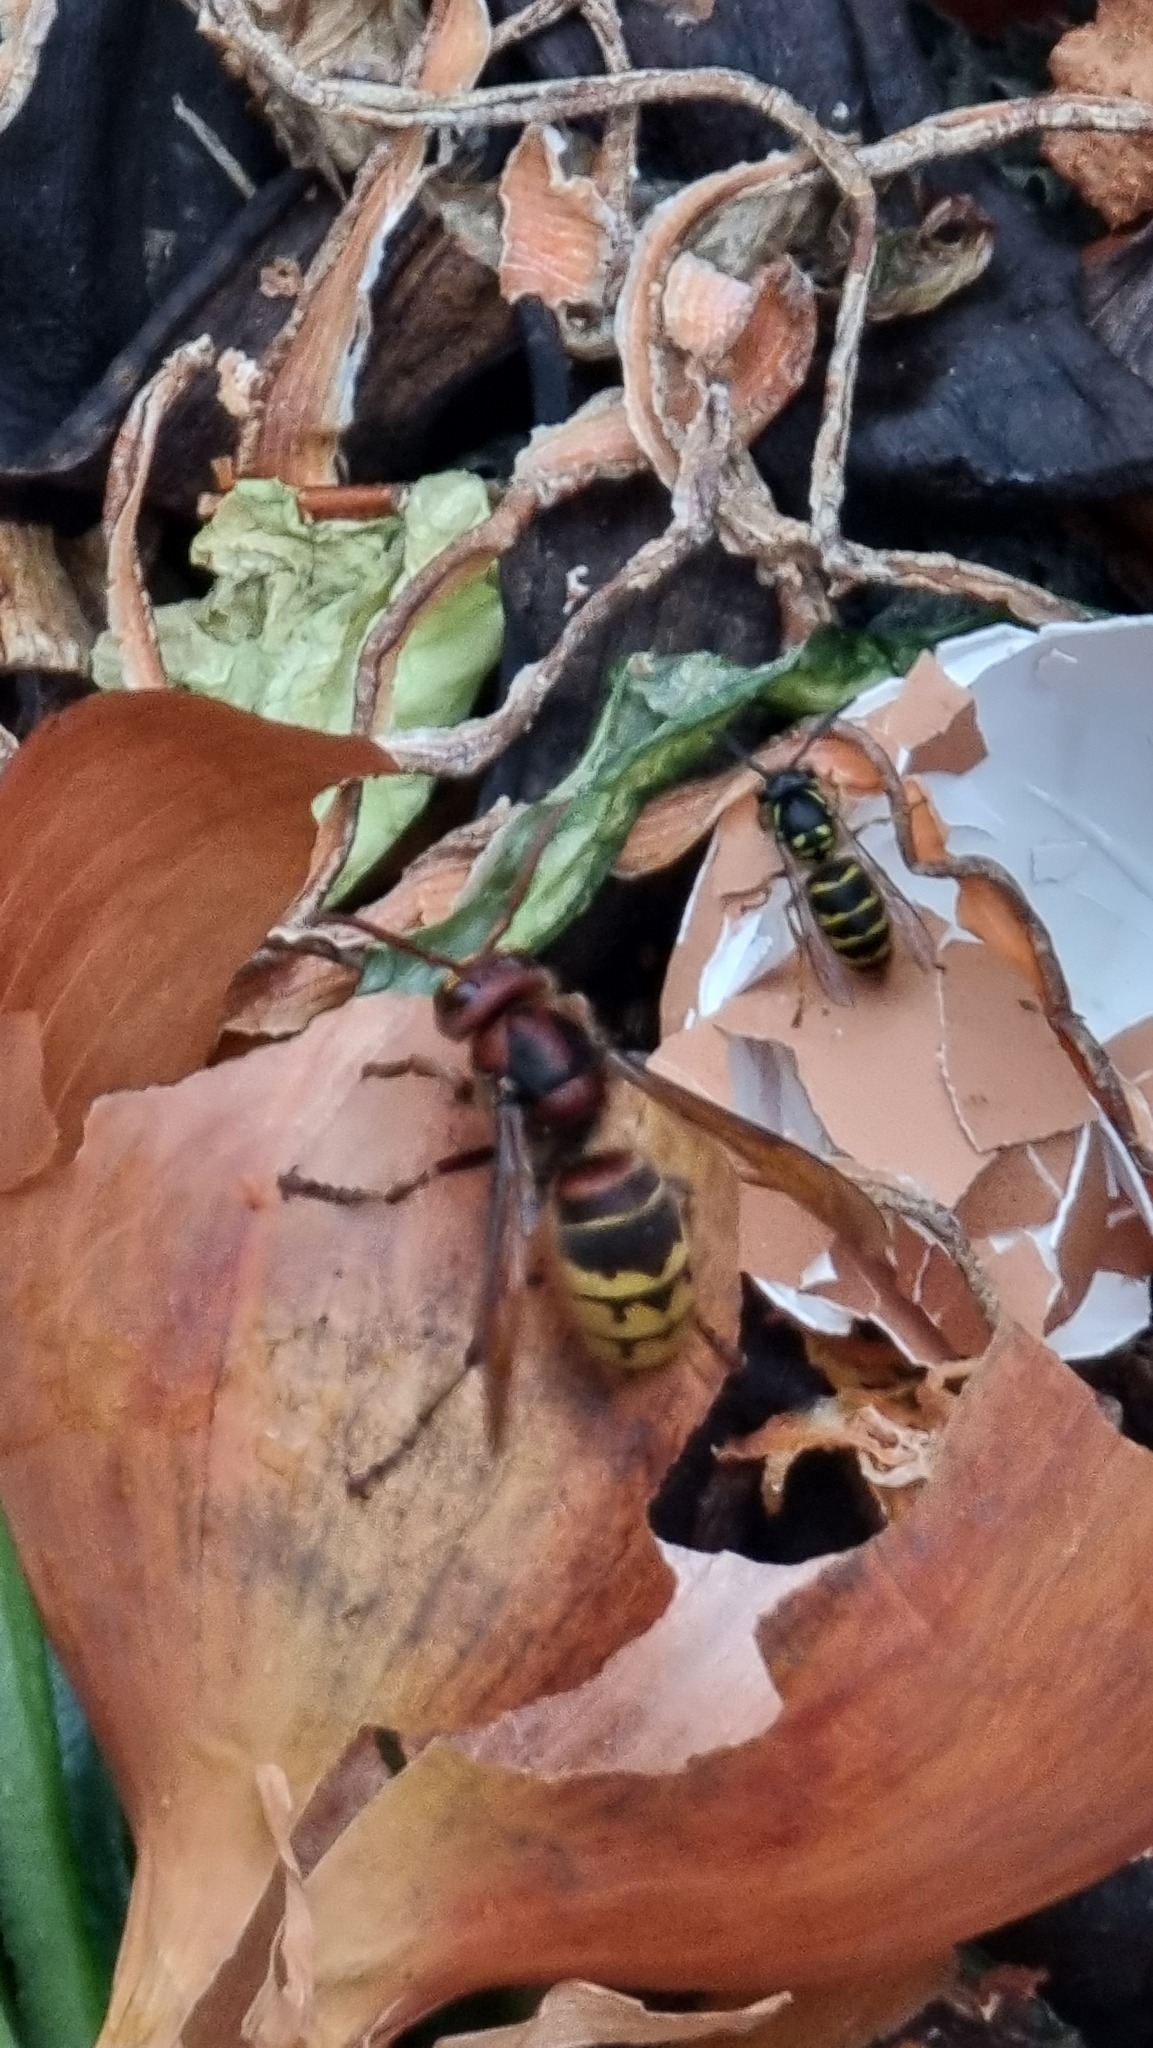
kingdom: Animalia
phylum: Arthropoda
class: Insecta
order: Hymenoptera
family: Vespidae
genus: Vespa
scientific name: Vespa crabro
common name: Hornet
